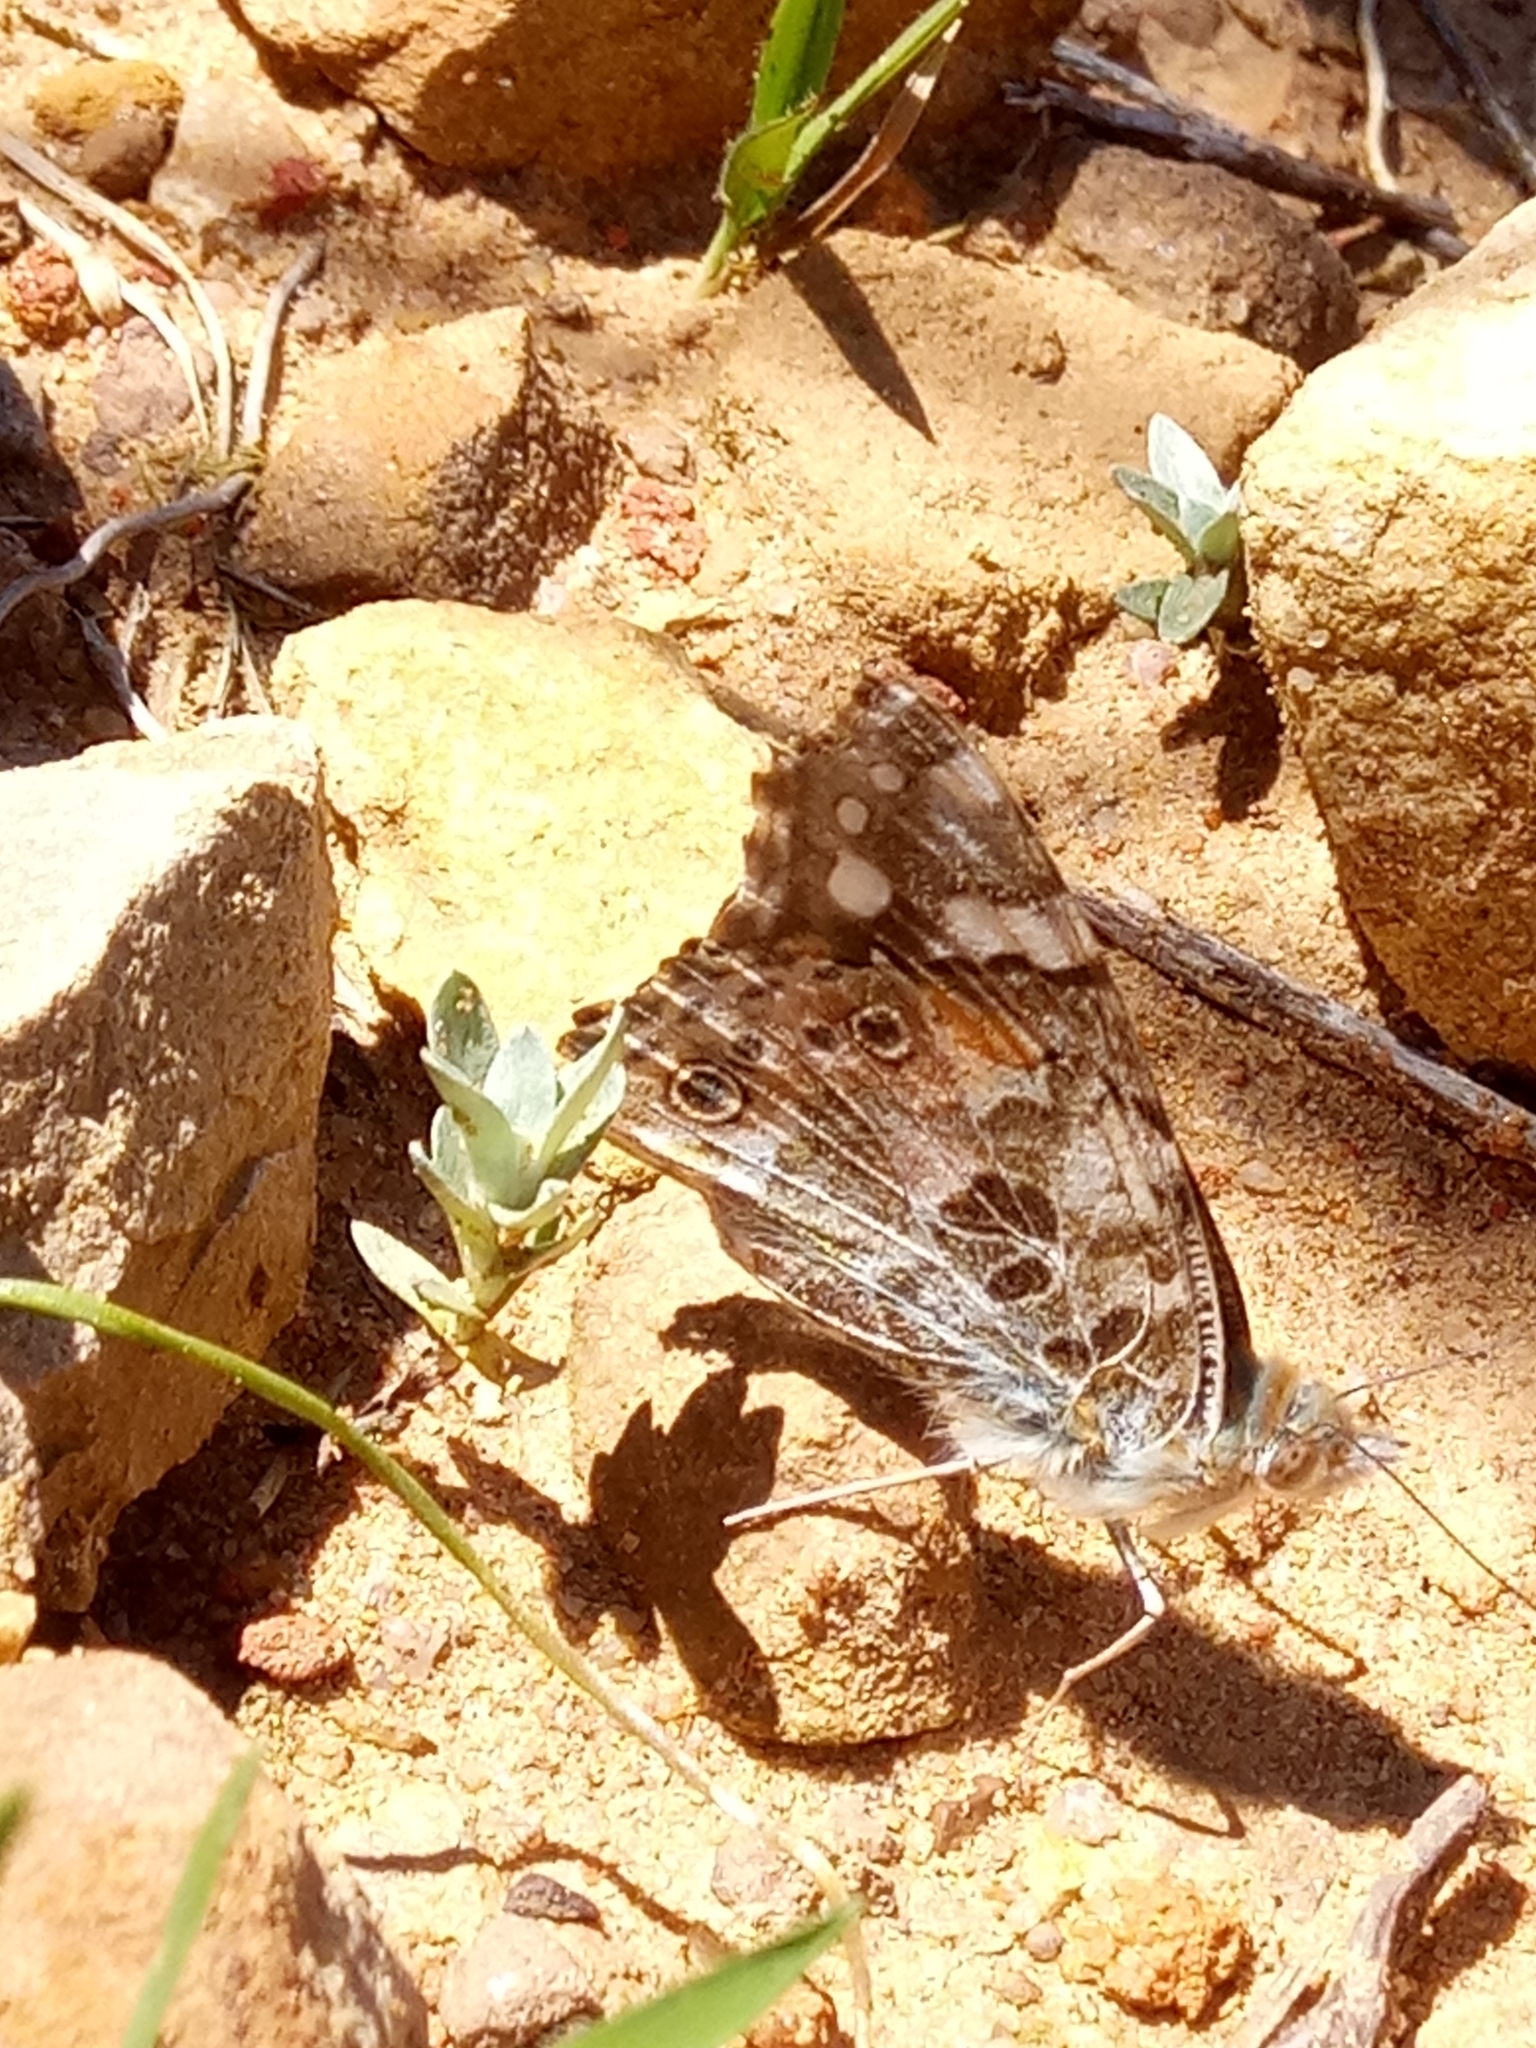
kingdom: Animalia
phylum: Arthropoda
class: Insecta
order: Lepidoptera
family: Nymphalidae
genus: Vanessa
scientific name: Vanessa cardui
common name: Painted lady
